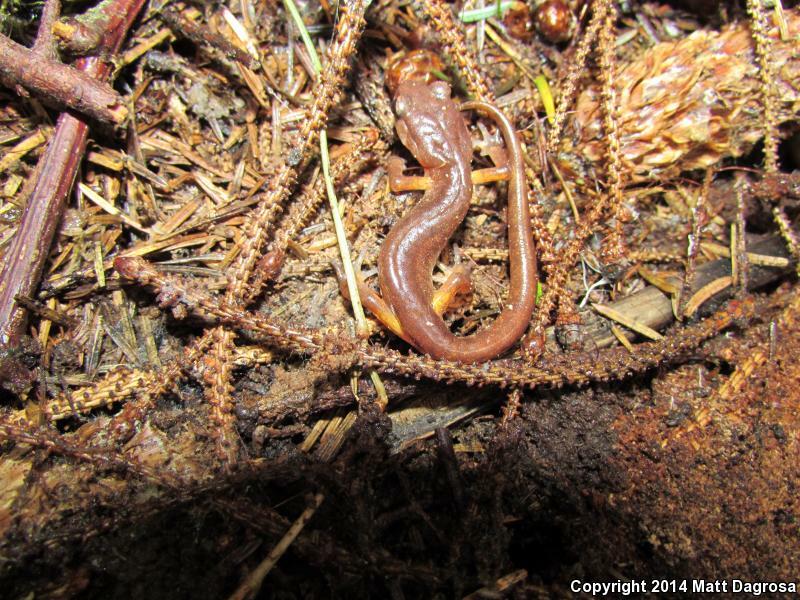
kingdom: Animalia
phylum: Chordata
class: Amphibia
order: Caudata
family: Plethodontidae
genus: Ensatina
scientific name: Ensatina eschscholtzii
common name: Ensatina
